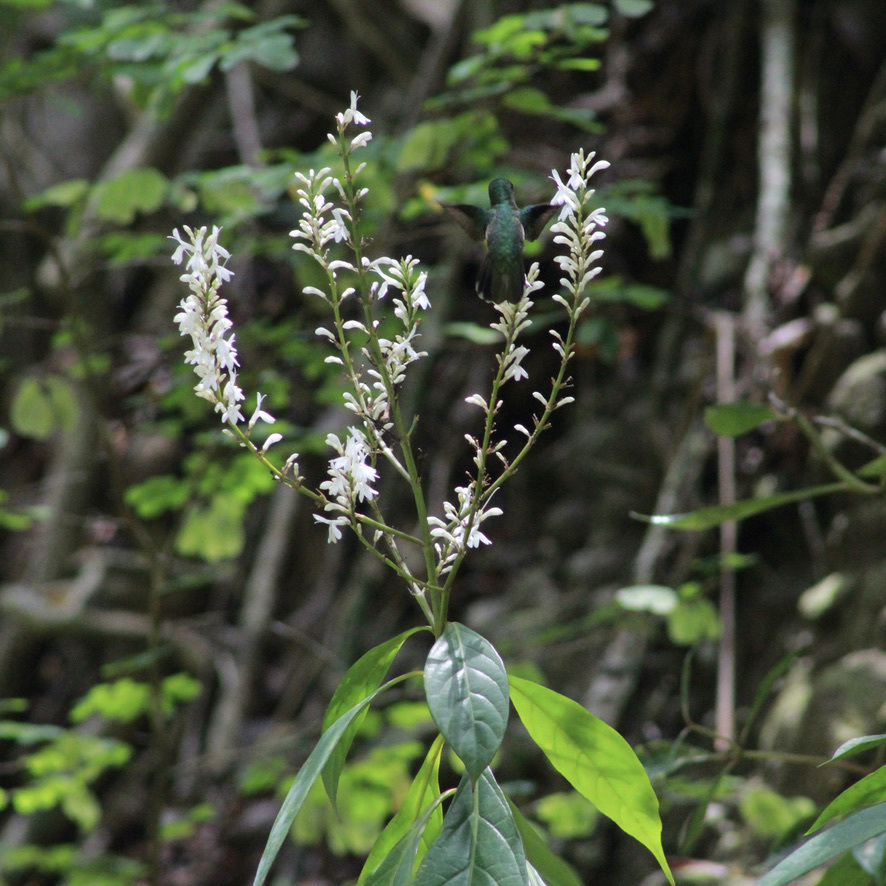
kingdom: Animalia
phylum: Chordata
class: Aves
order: Apodiformes
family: Trochilidae
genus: Orthorhyncus
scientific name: Orthorhyncus cristatus
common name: Antillean crested hummingbird
